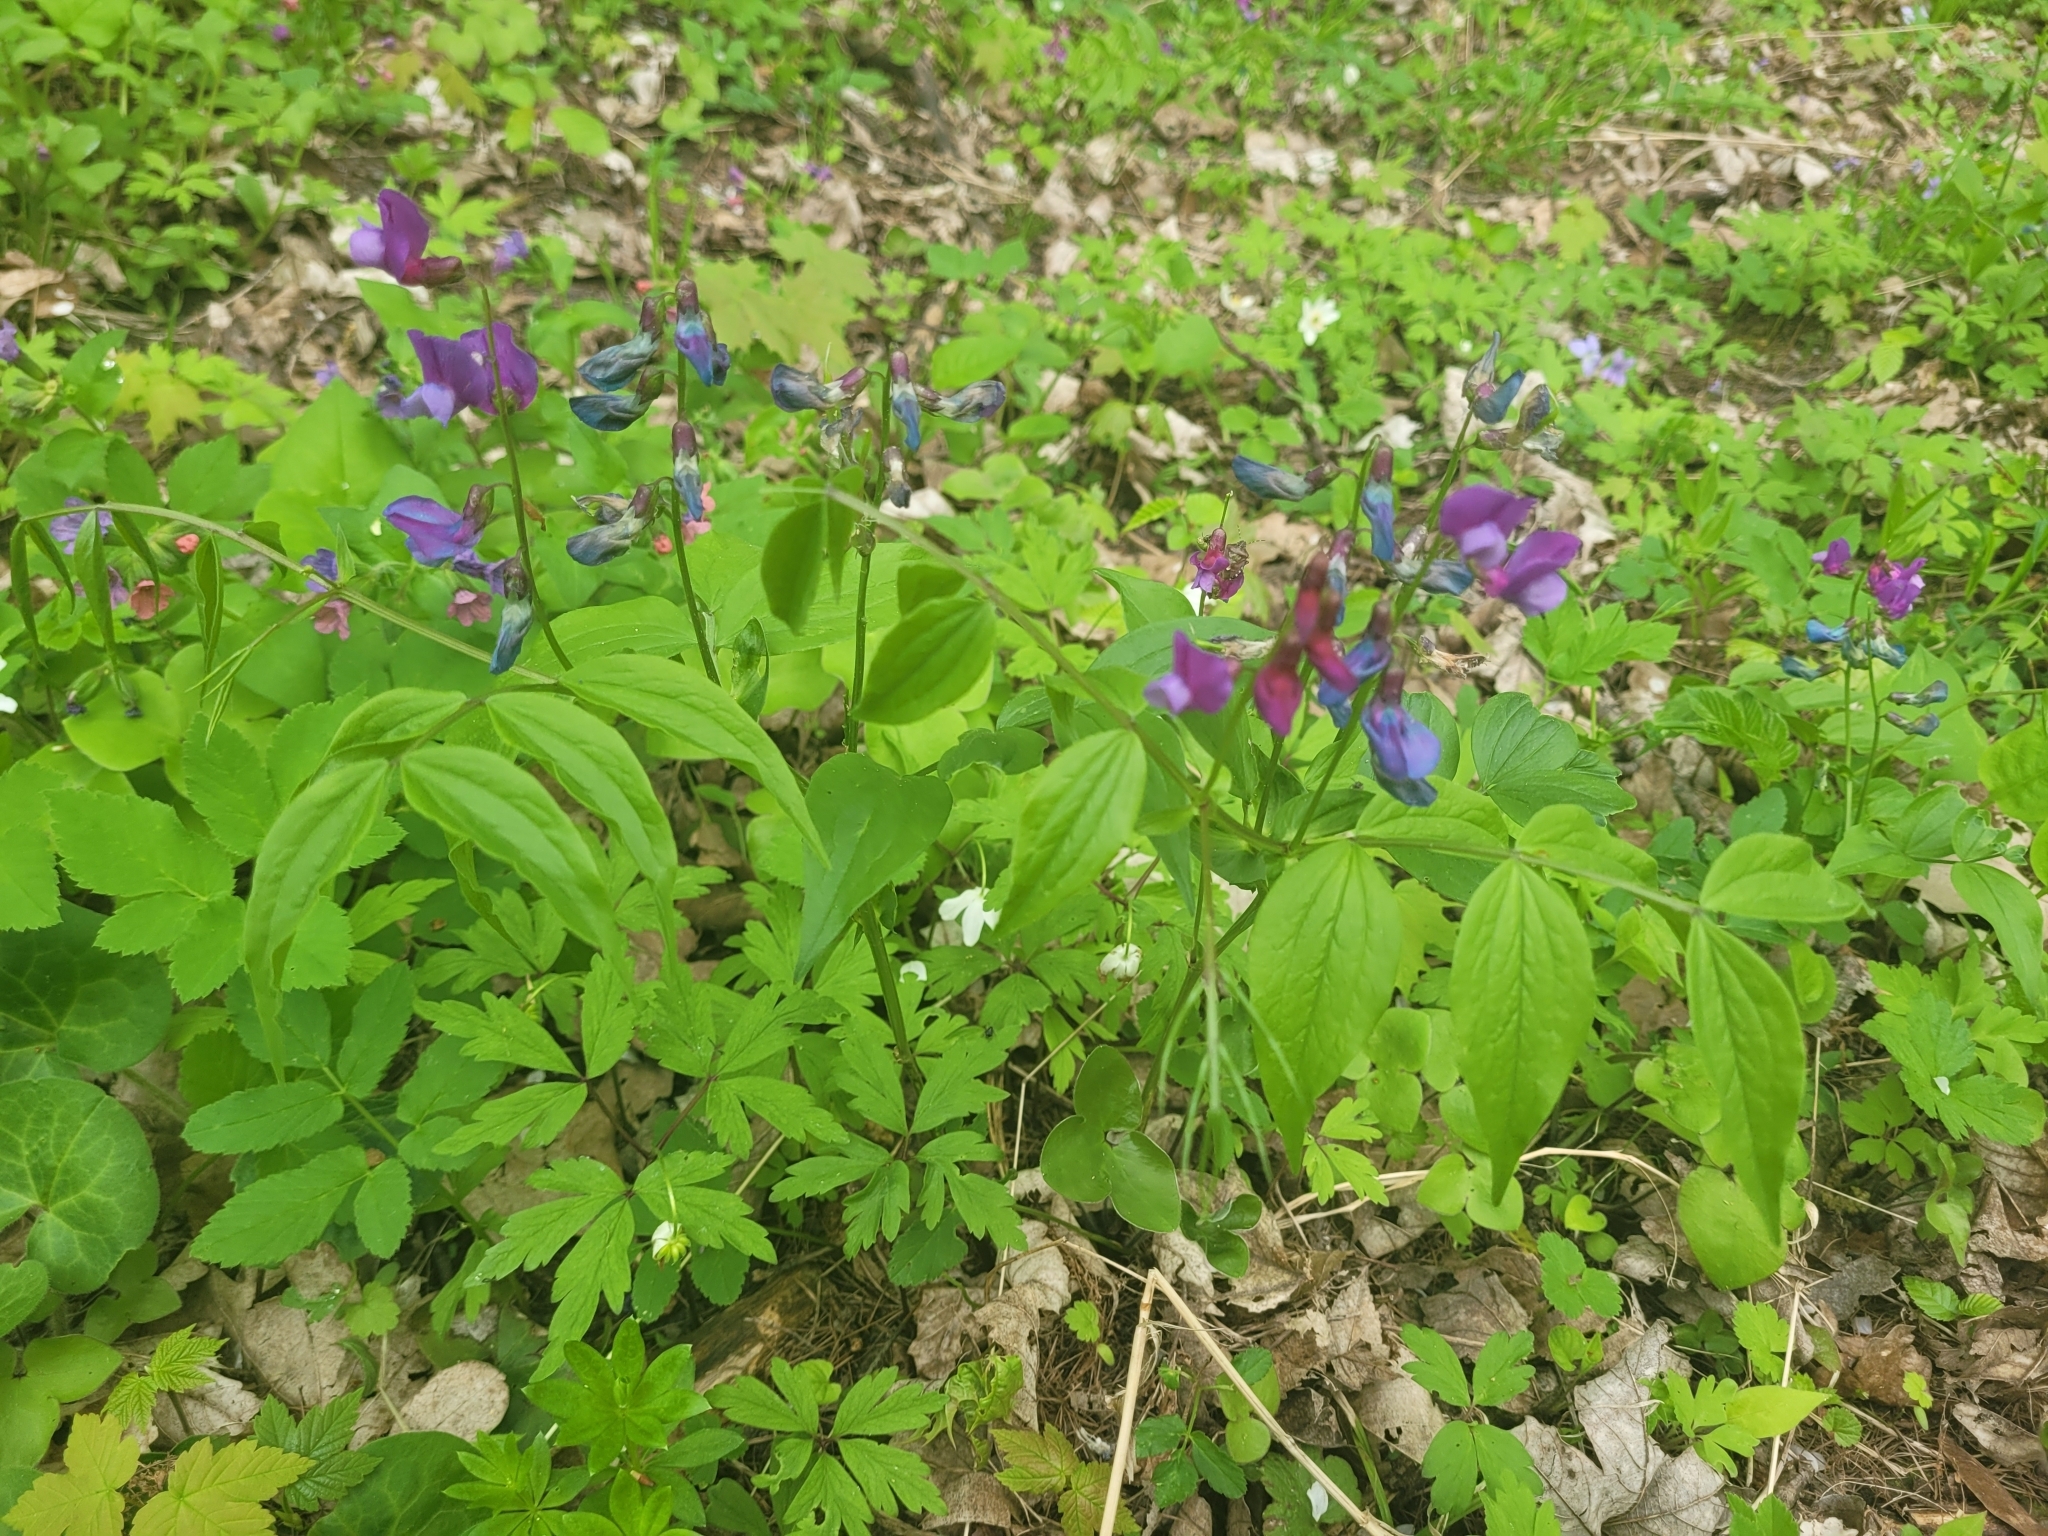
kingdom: Plantae
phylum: Tracheophyta
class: Magnoliopsida
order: Fabales
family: Fabaceae
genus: Lathyrus
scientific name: Lathyrus vernus
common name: Spring pea
